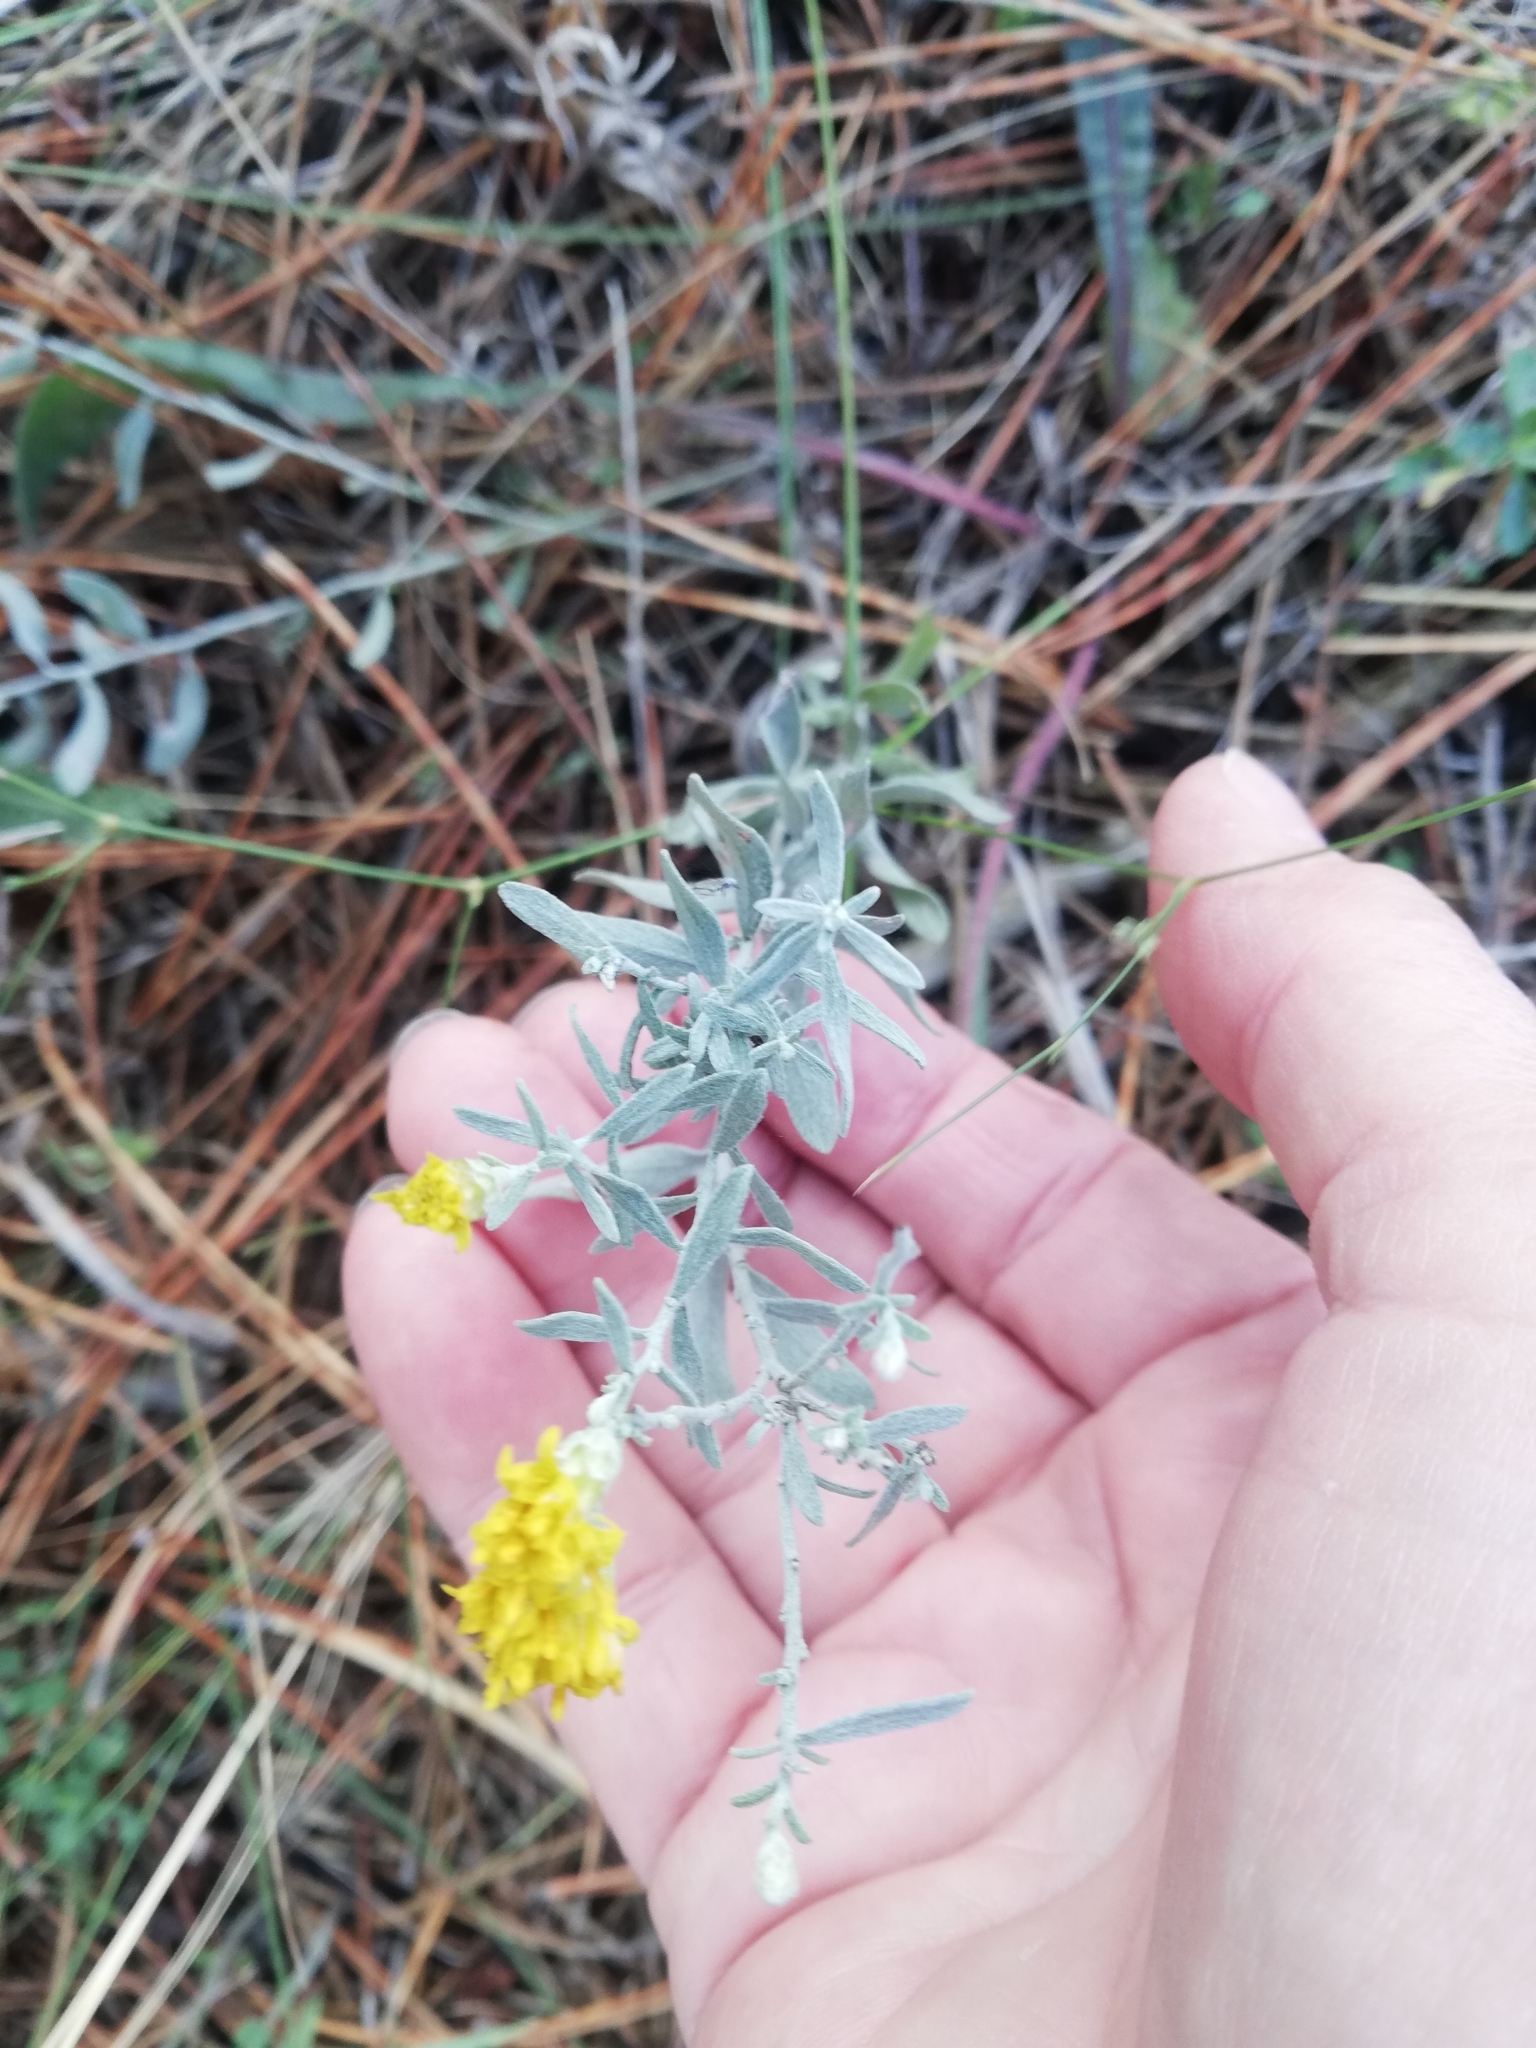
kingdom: Plantae
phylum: Tracheophyta
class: Magnoliopsida
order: Asterales
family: Asteraceae
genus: Galatella
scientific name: Galatella villosa
